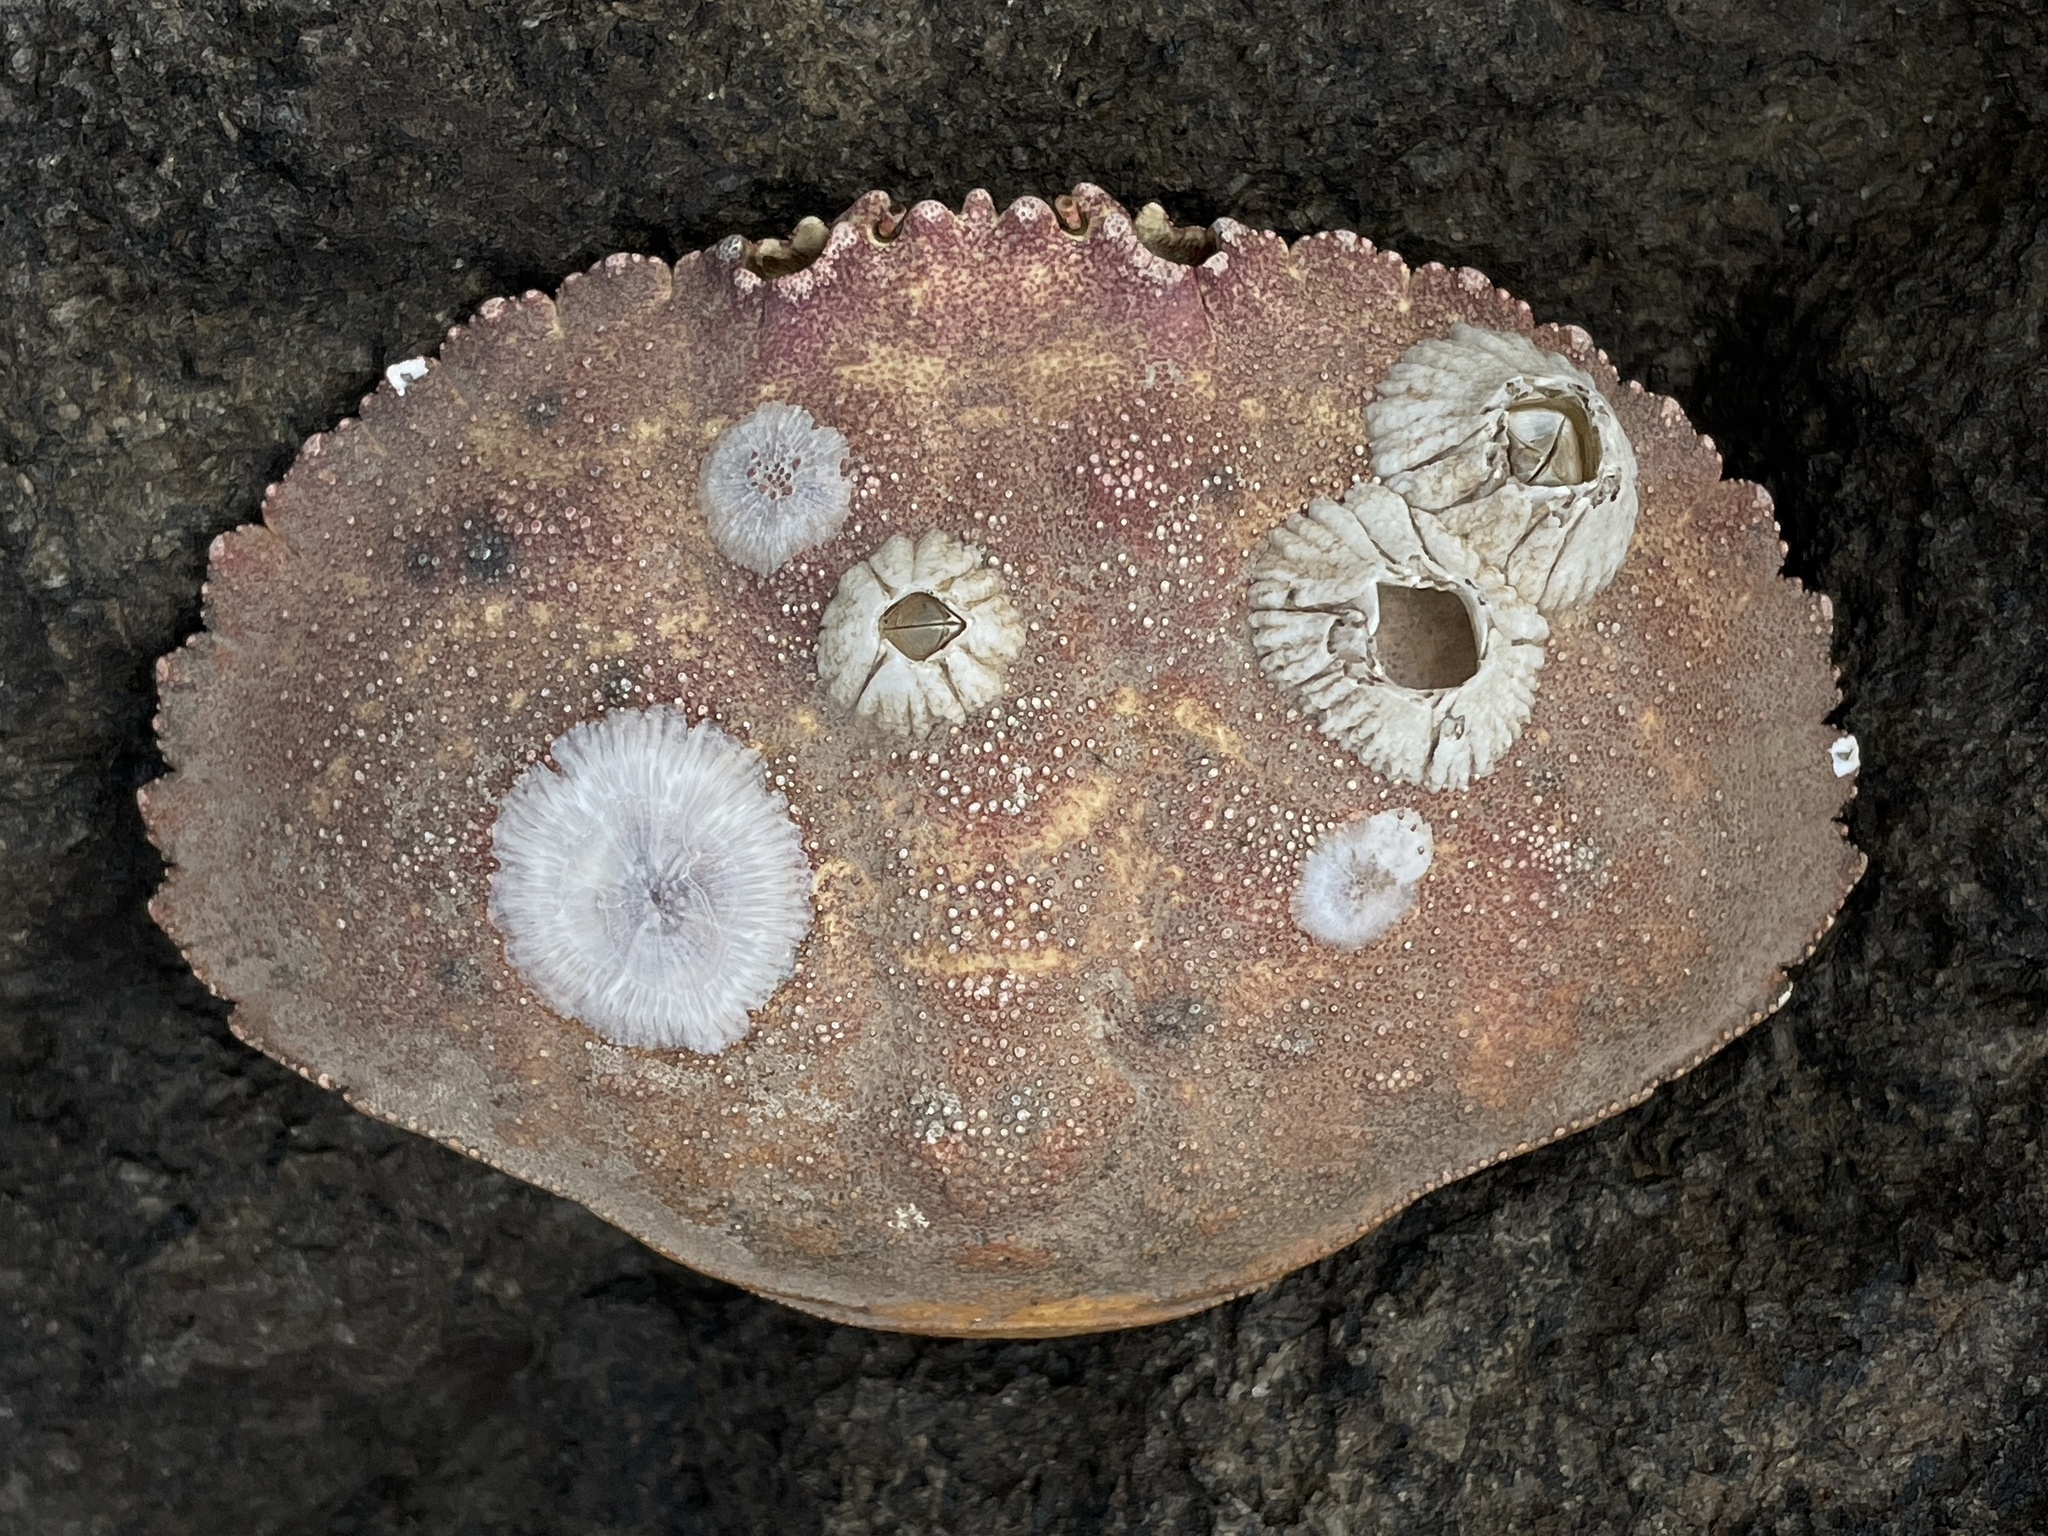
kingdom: Animalia
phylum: Arthropoda
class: Malacostraca
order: Decapoda
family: Cancridae
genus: Cancer
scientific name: Cancer borealis
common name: Jonah crab
